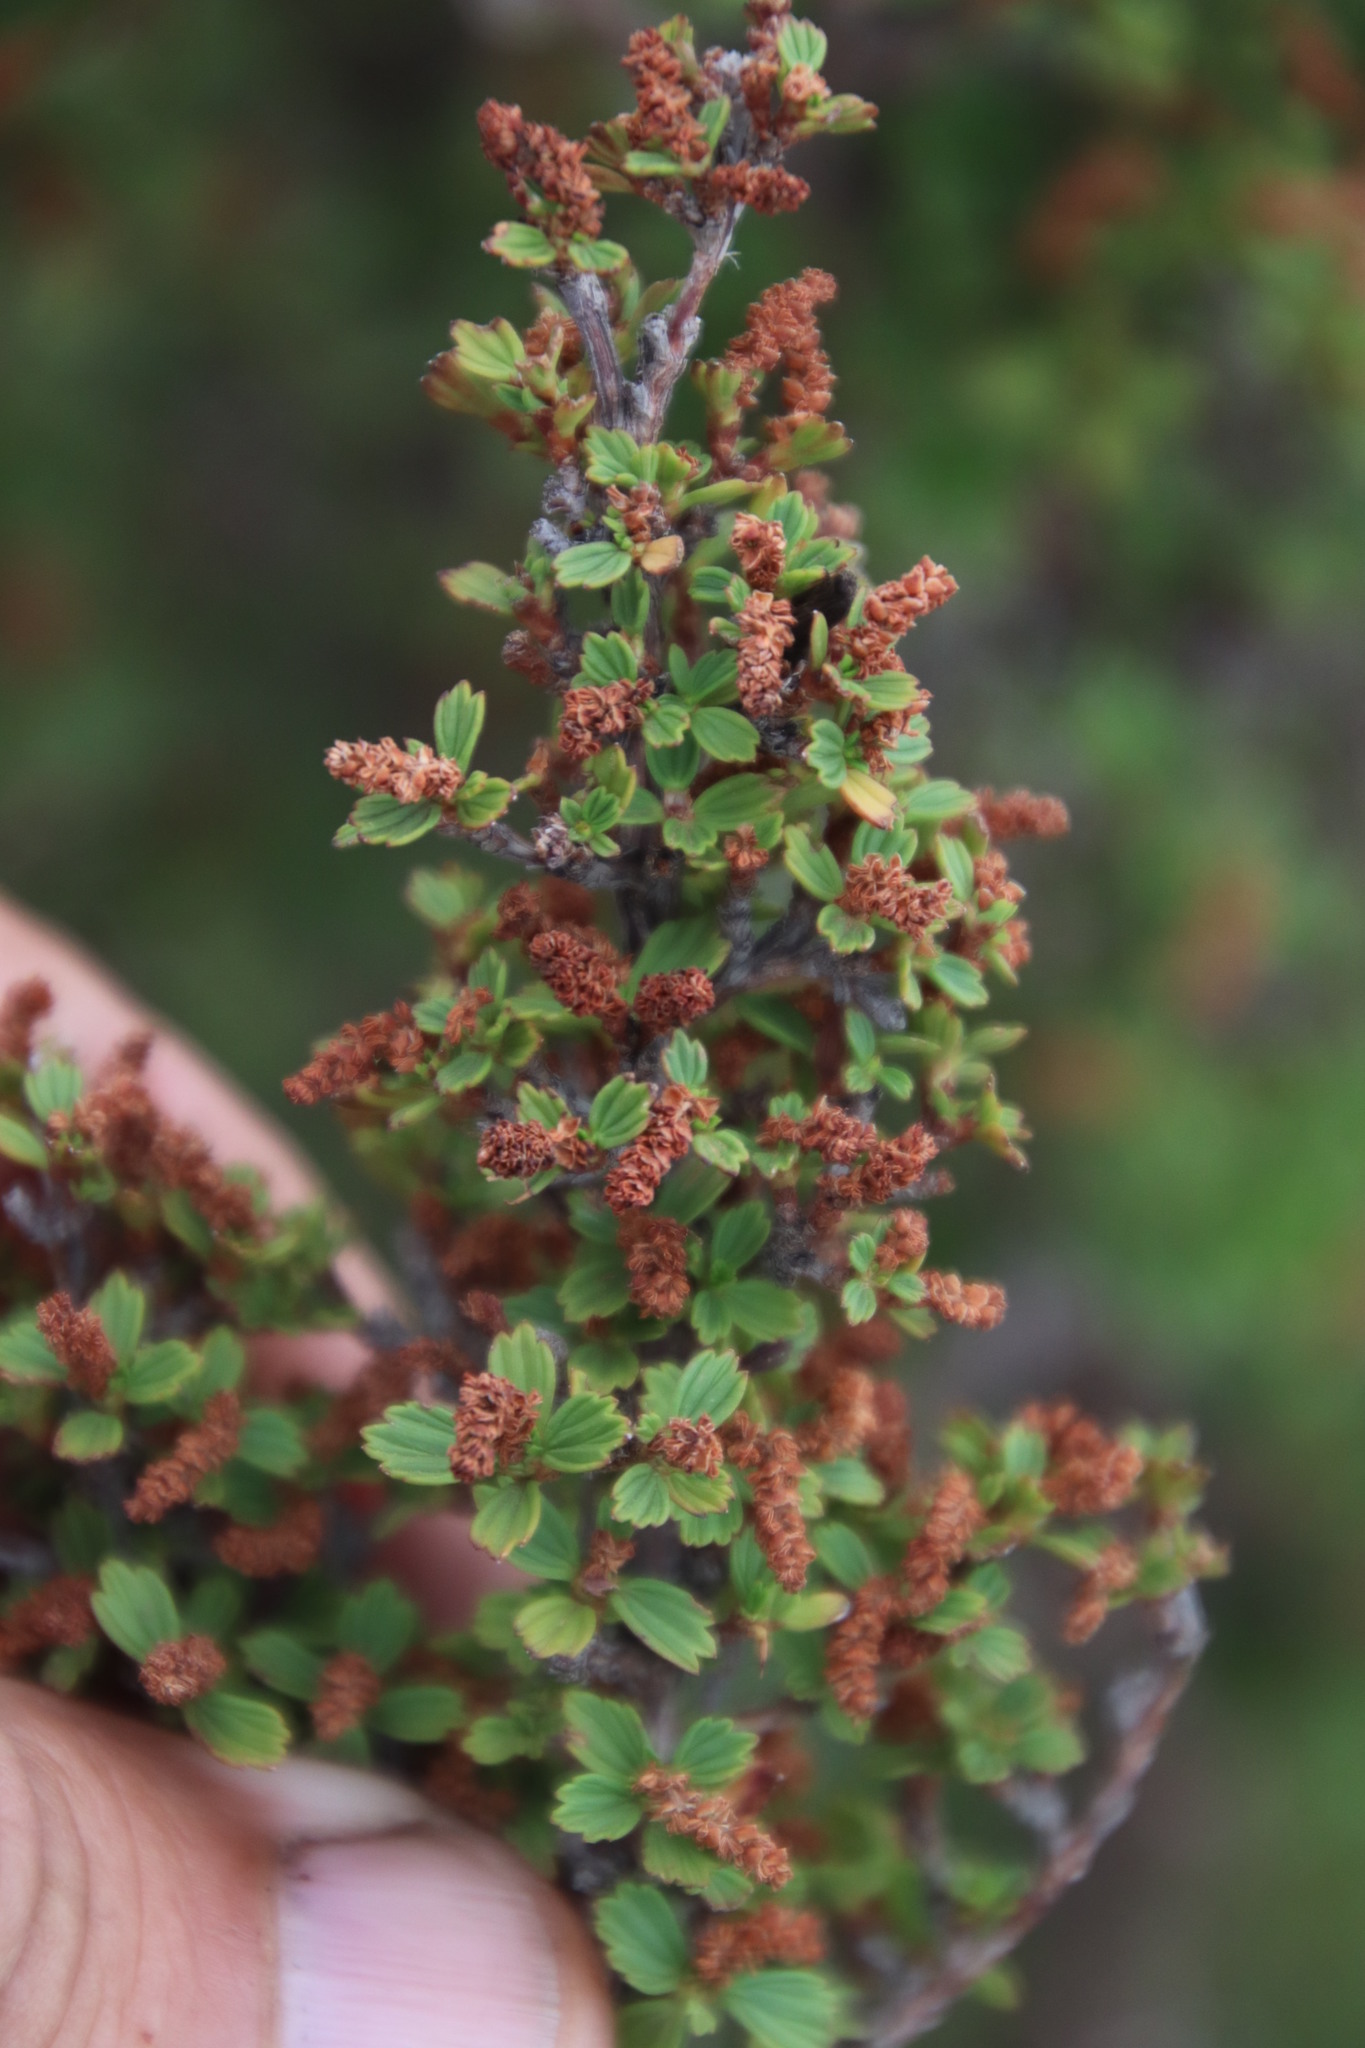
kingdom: Plantae
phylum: Tracheophyta
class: Magnoliopsida
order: Gunnerales
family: Myrothamnaceae
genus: Myrothamnus
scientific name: Myrothamnus flabellifolius
